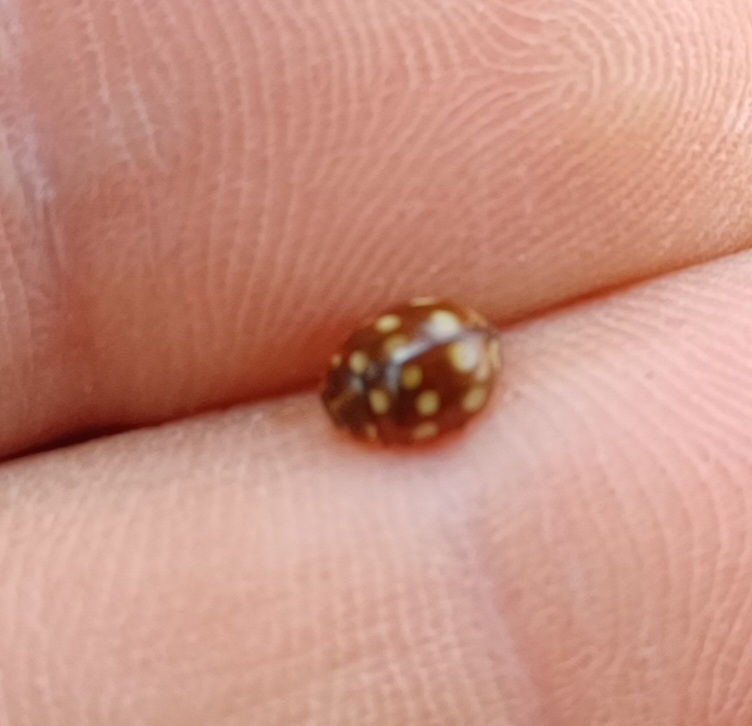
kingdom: Animalia
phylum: Arthropoda
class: Insecta
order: Coleoptera
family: Coccinellidae
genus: Calvia
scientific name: Calvia quatuordecimguttata
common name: Cream-spot ladybird
